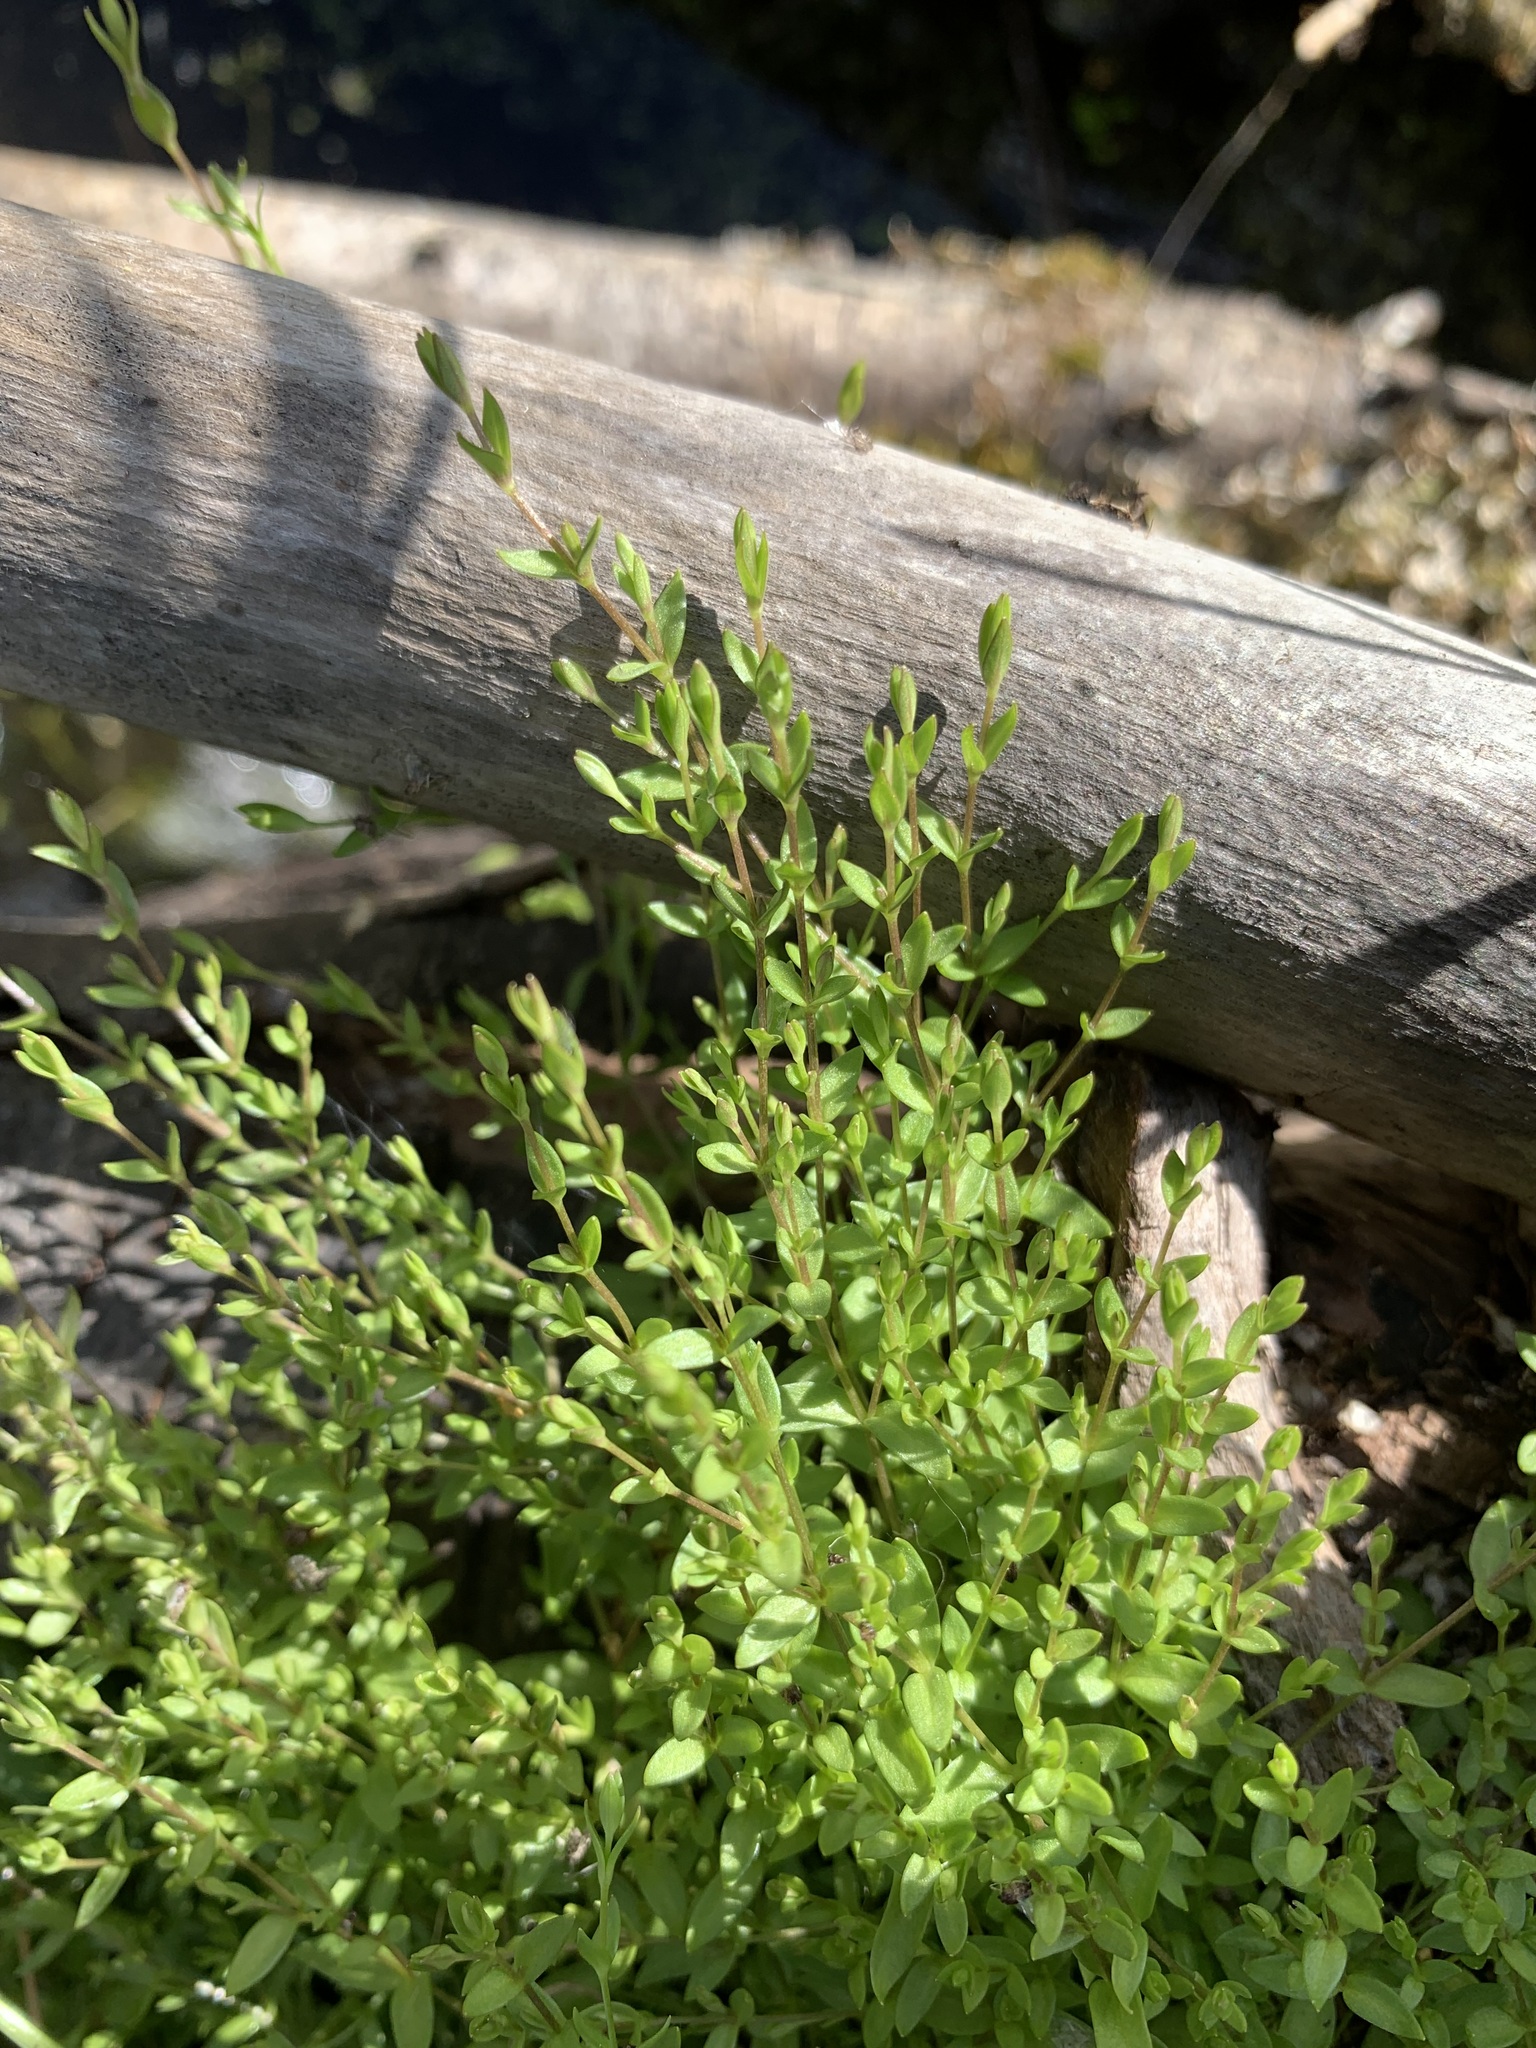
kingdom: Plantae
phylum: Tracheophyta
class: Magnoliopsida
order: Caryophyllales
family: Caryophyllaceae
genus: Stellaria
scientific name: Stellaria crassifolia
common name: Fleshy starwort
